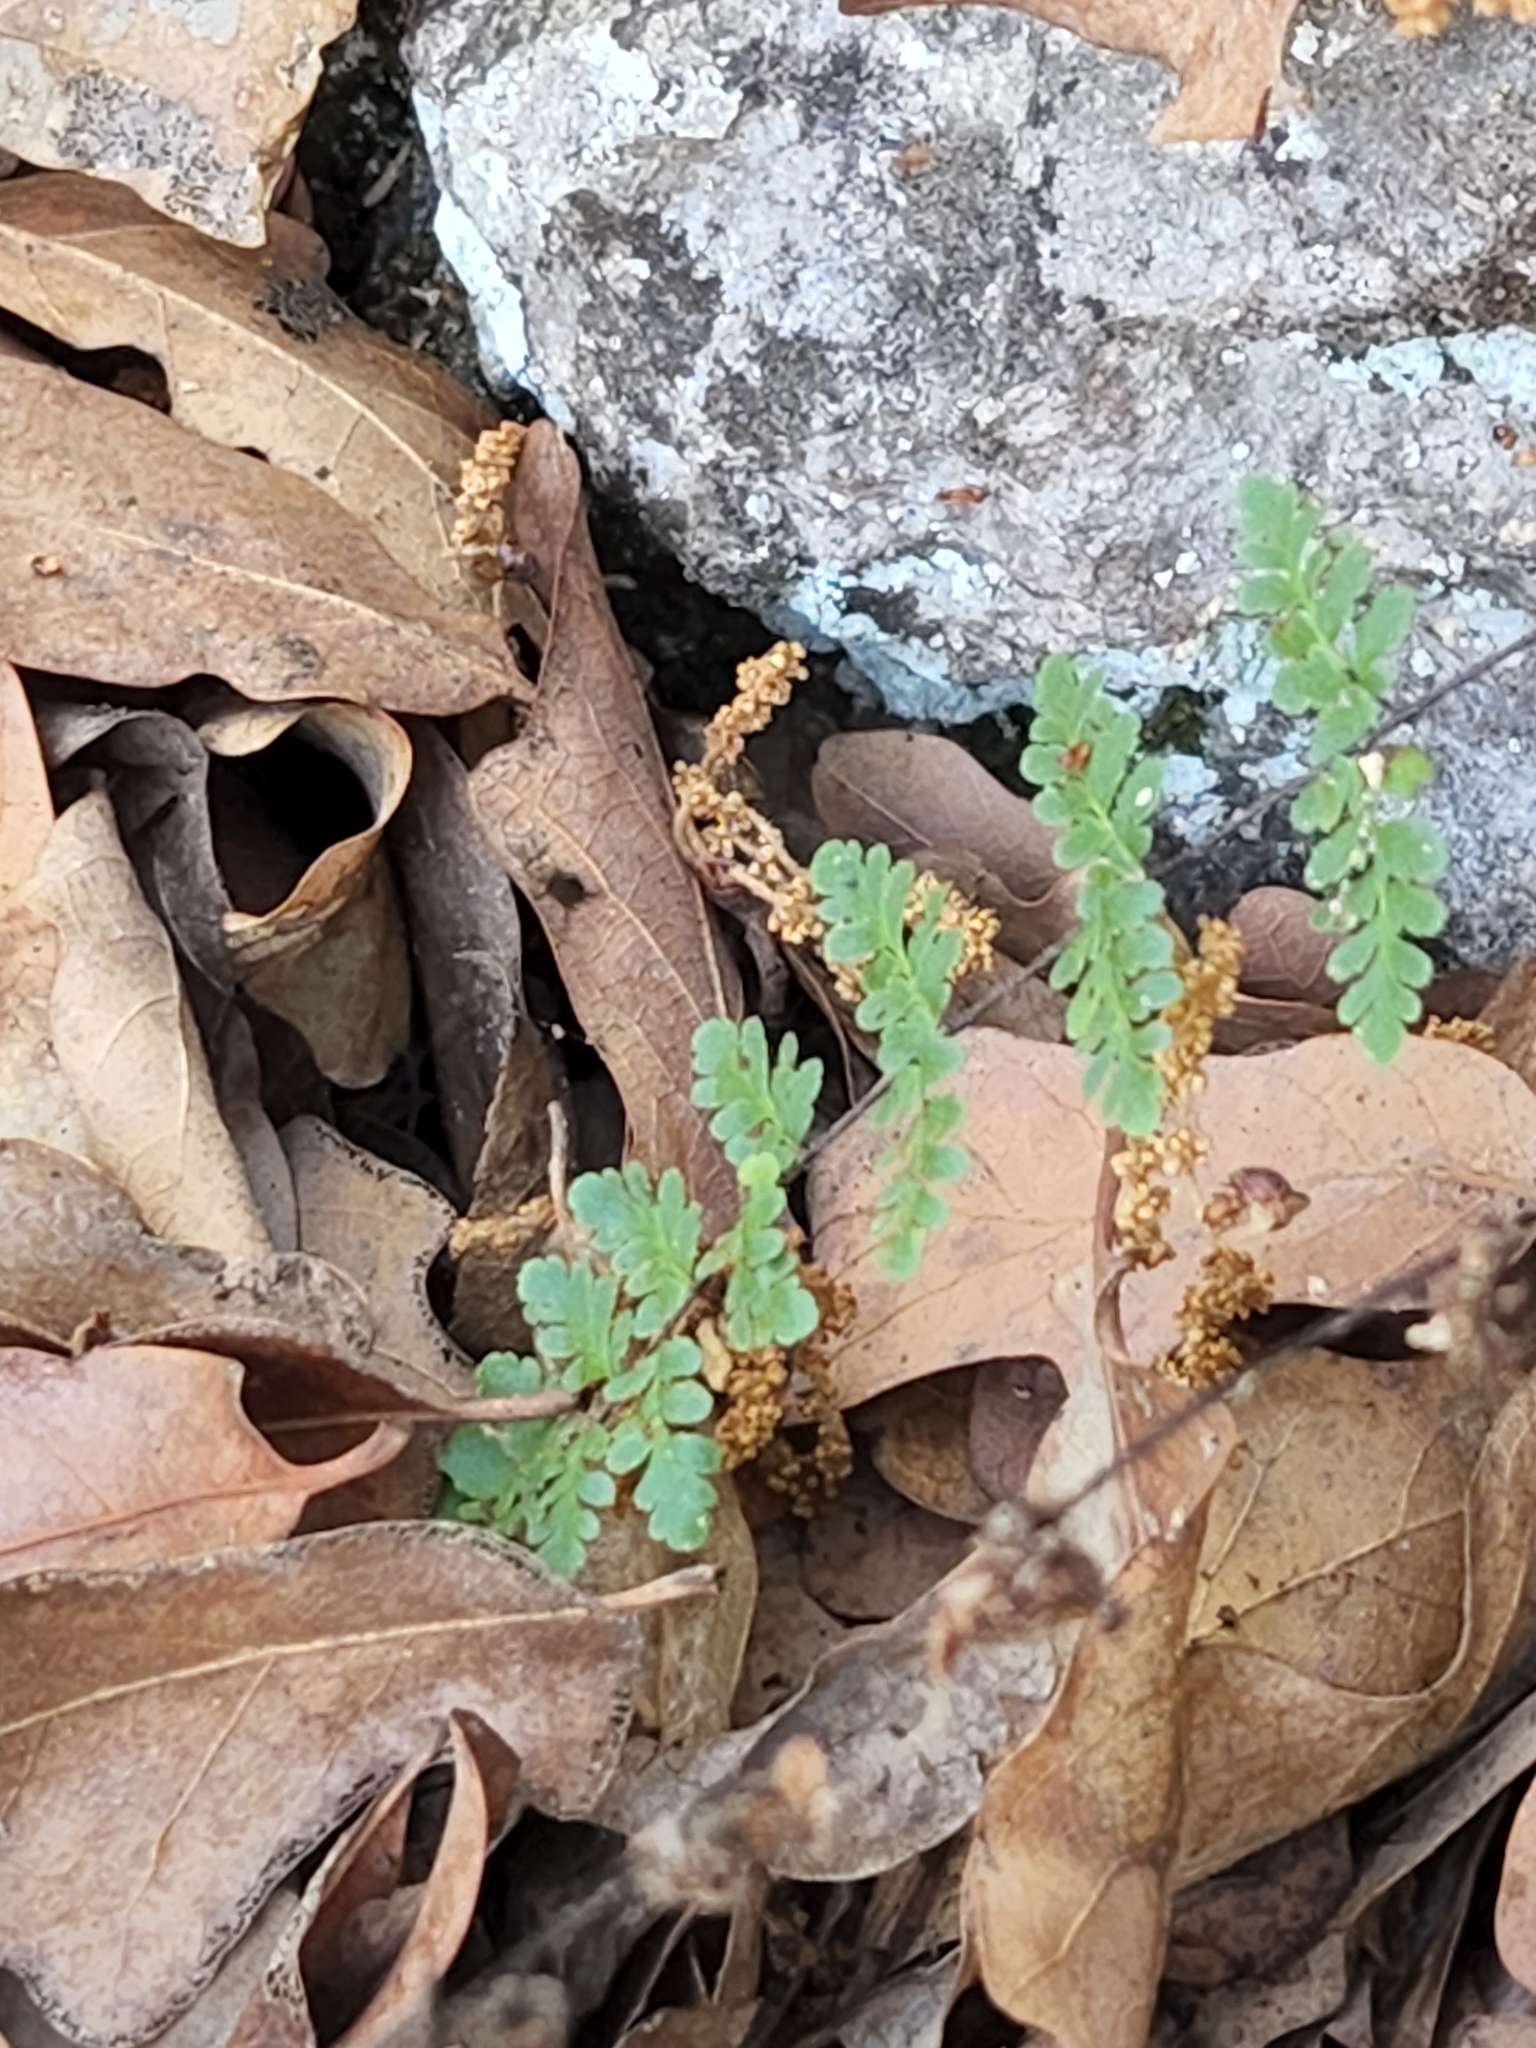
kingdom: Plantae
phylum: Tracheophyta
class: Polypodiopsida
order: Polypodiales
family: Pteridaceae
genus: Myriopteris
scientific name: Myriopteris alabamensis
